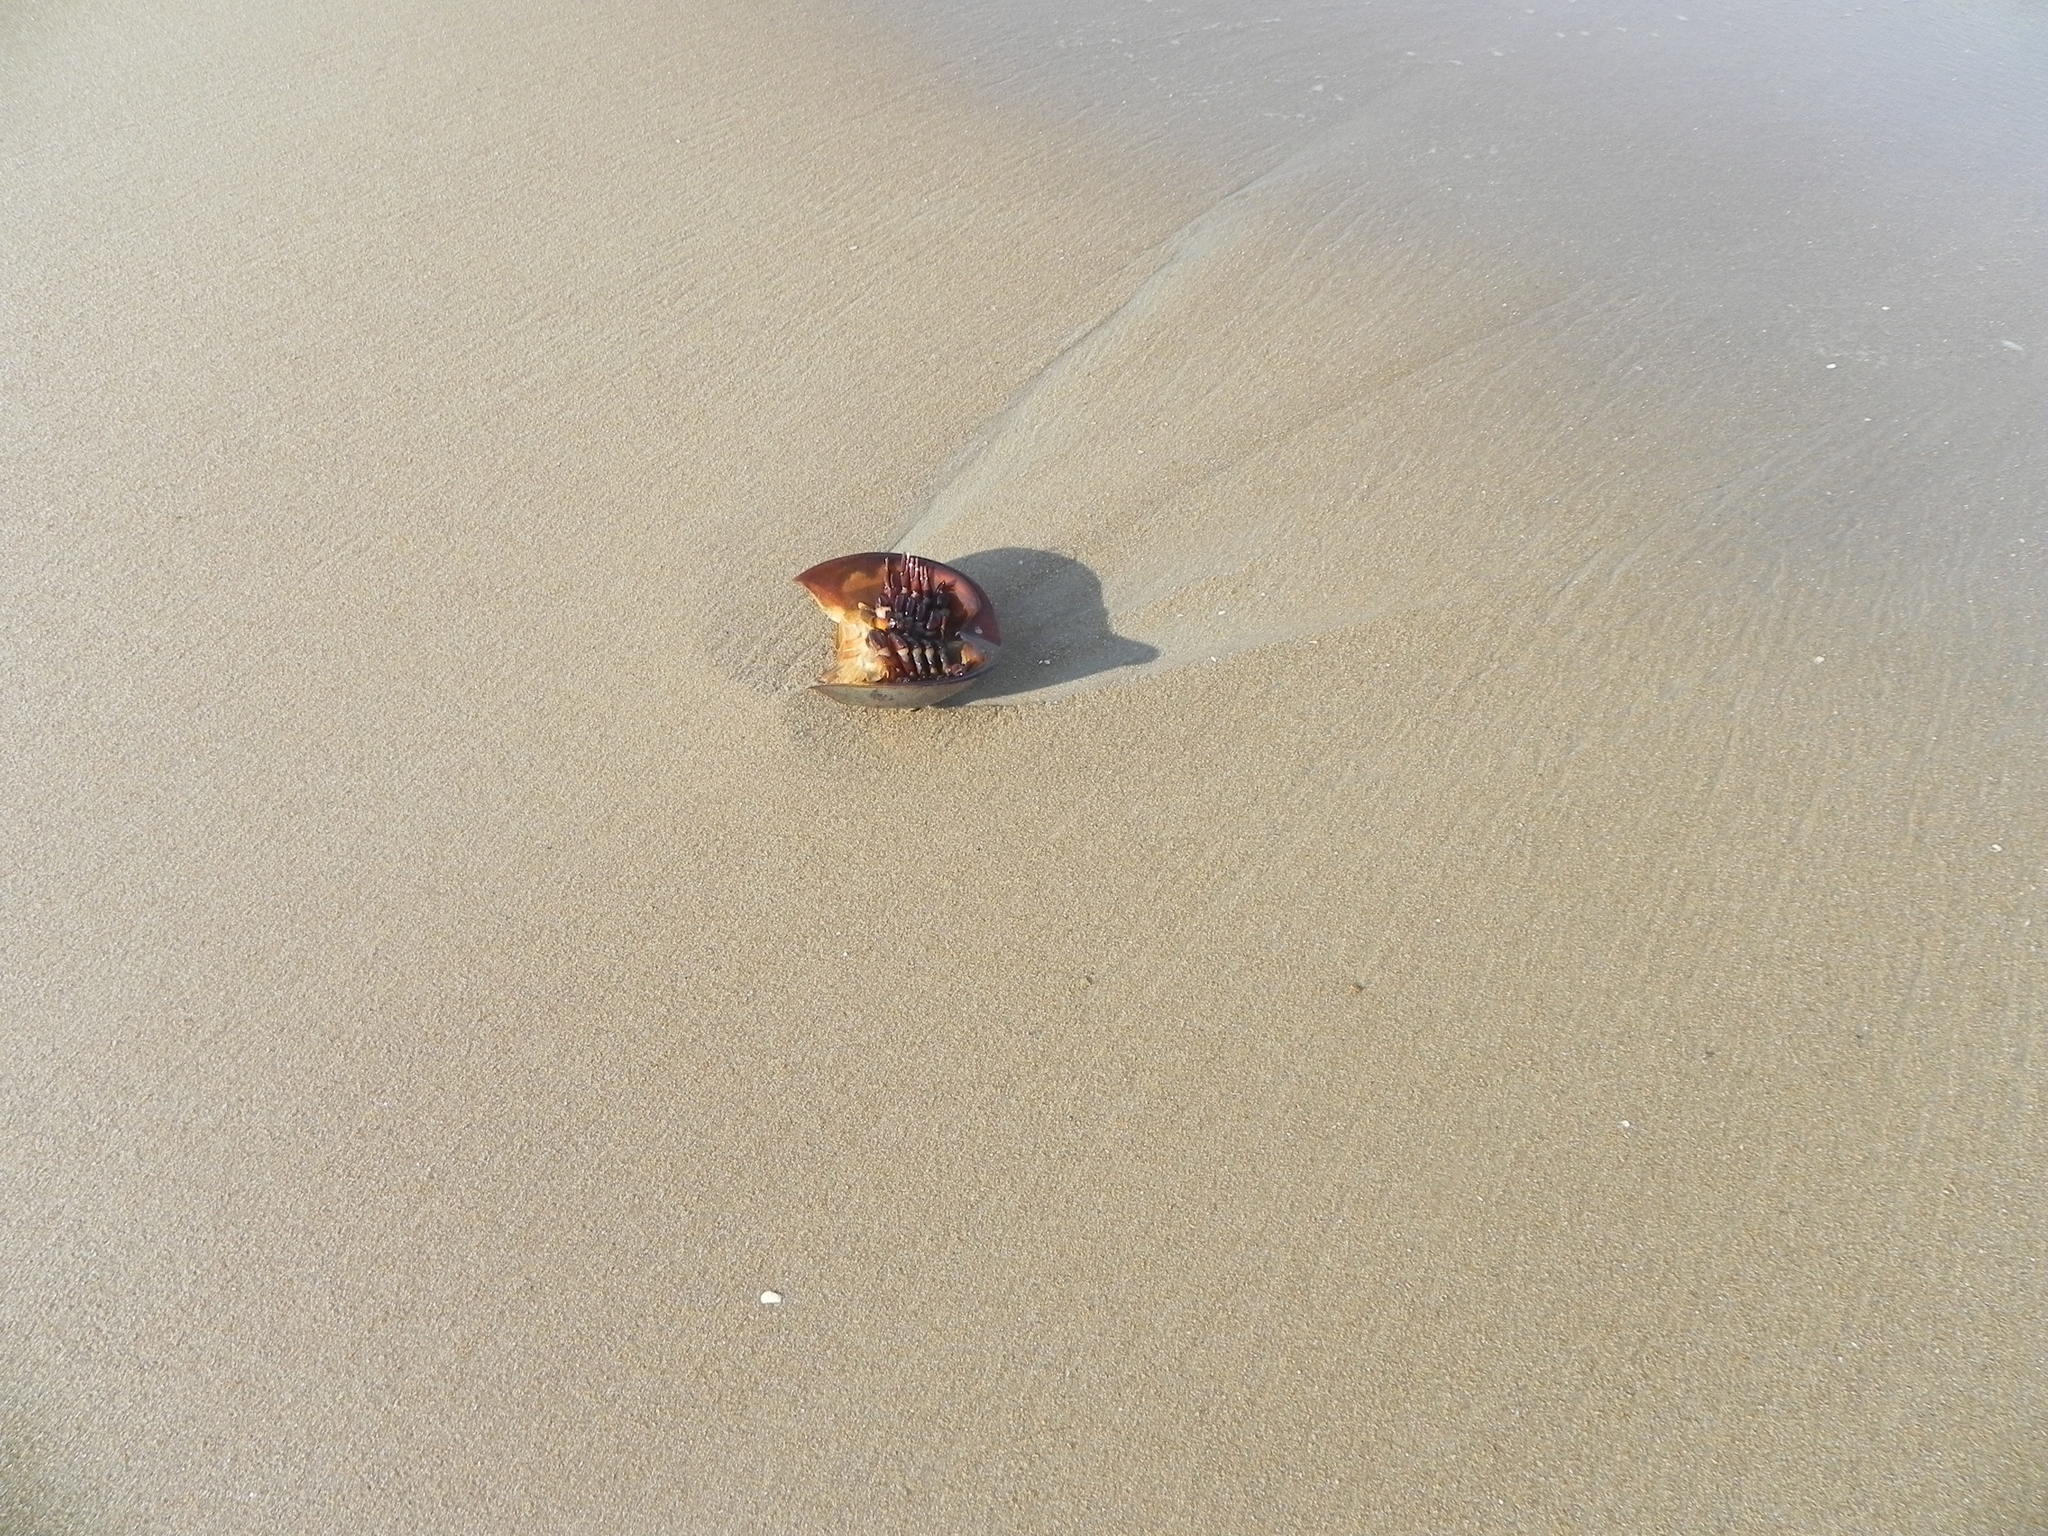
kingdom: Animalia
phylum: Arthropoda
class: Merostomata
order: Xiphosurida
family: Limulidae
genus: Limulus
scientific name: Limulus polyphemus
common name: Horseshoe crab
